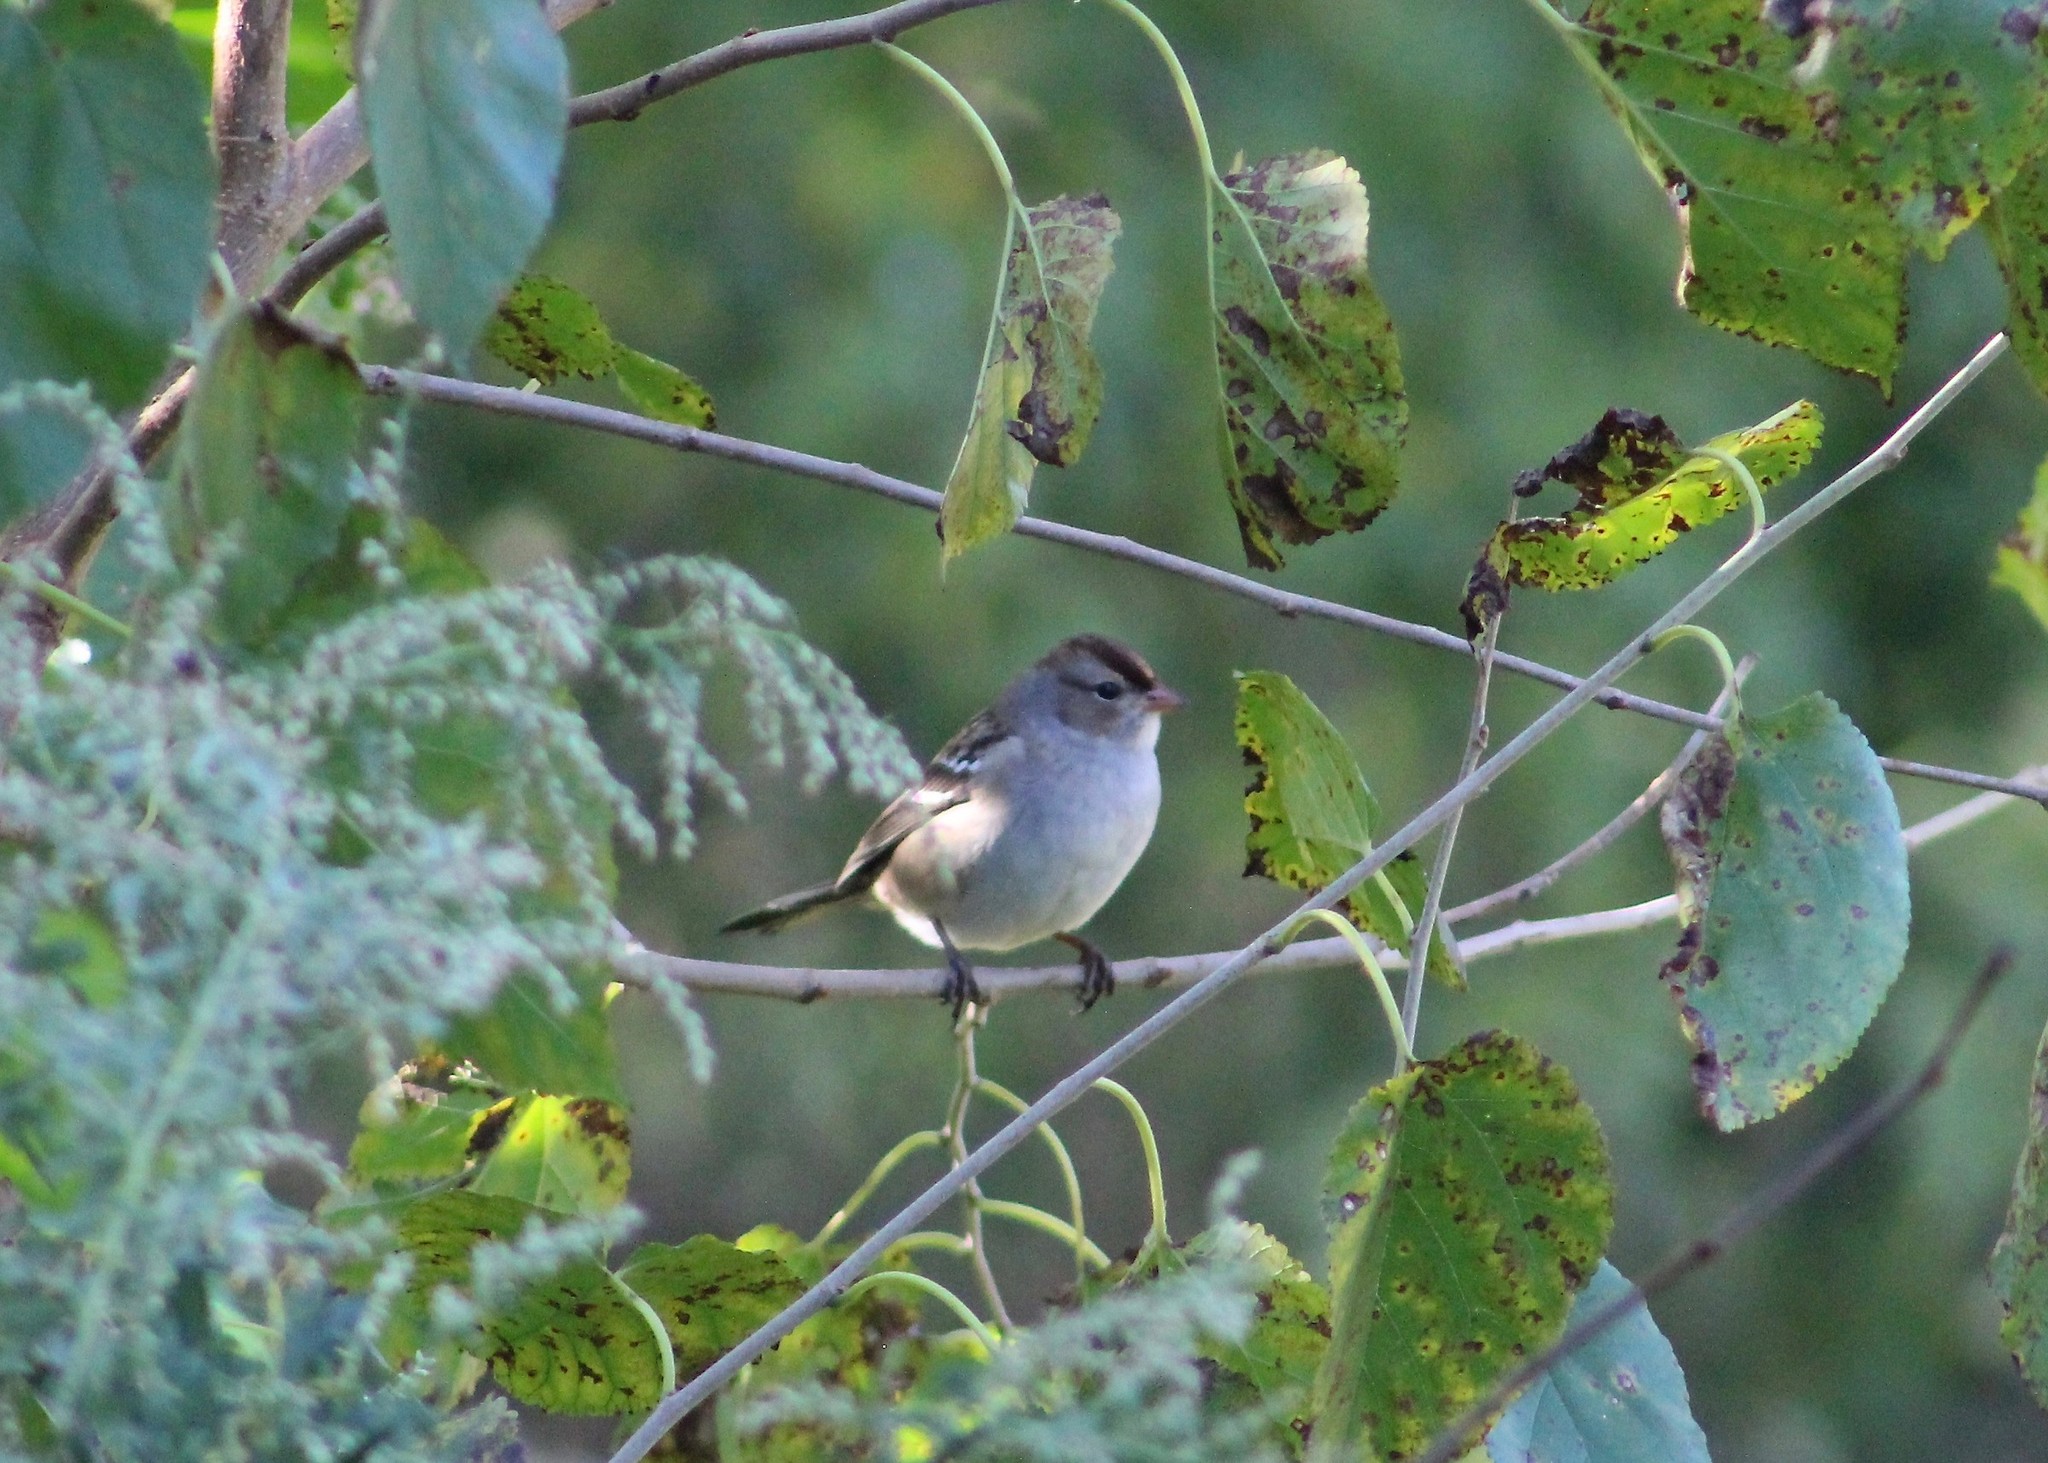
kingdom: Animalia
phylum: Chordata
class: Aves
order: Passeriformes
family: Passerellidae
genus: Zonotrichia
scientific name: Zonotrichia leucophrys
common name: White-crowned sparrow
